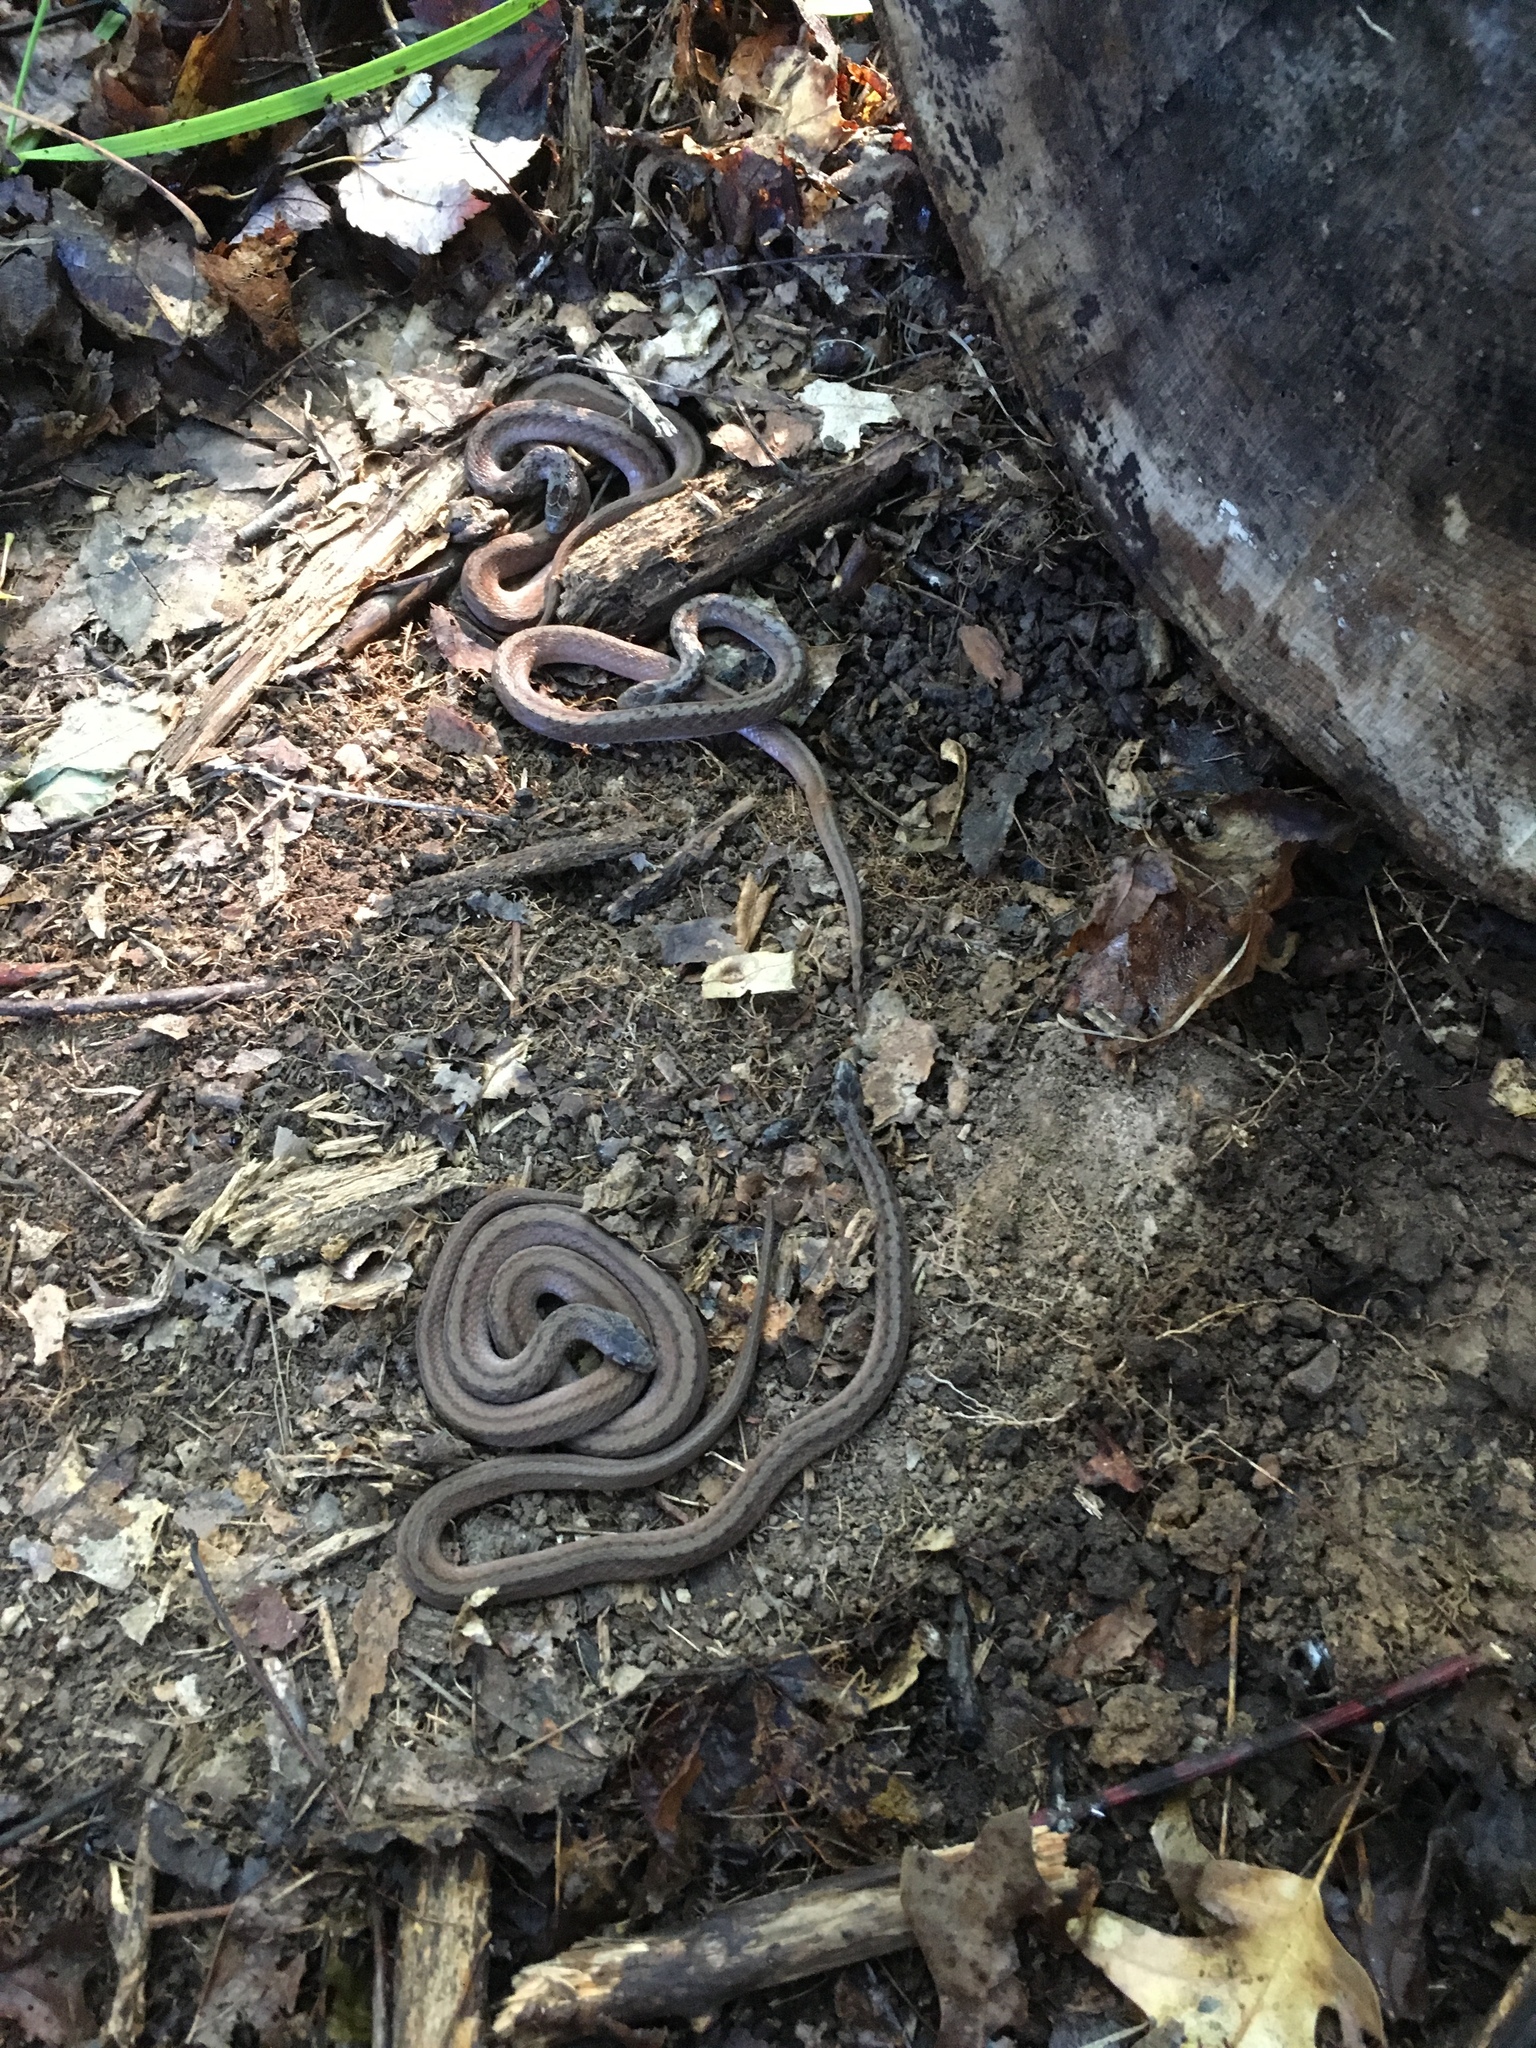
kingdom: Animalia
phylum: Chordata
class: Squamata
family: Colubridae
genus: Storeria
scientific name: Storeria dekayi
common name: (dekay’s) brown snake
